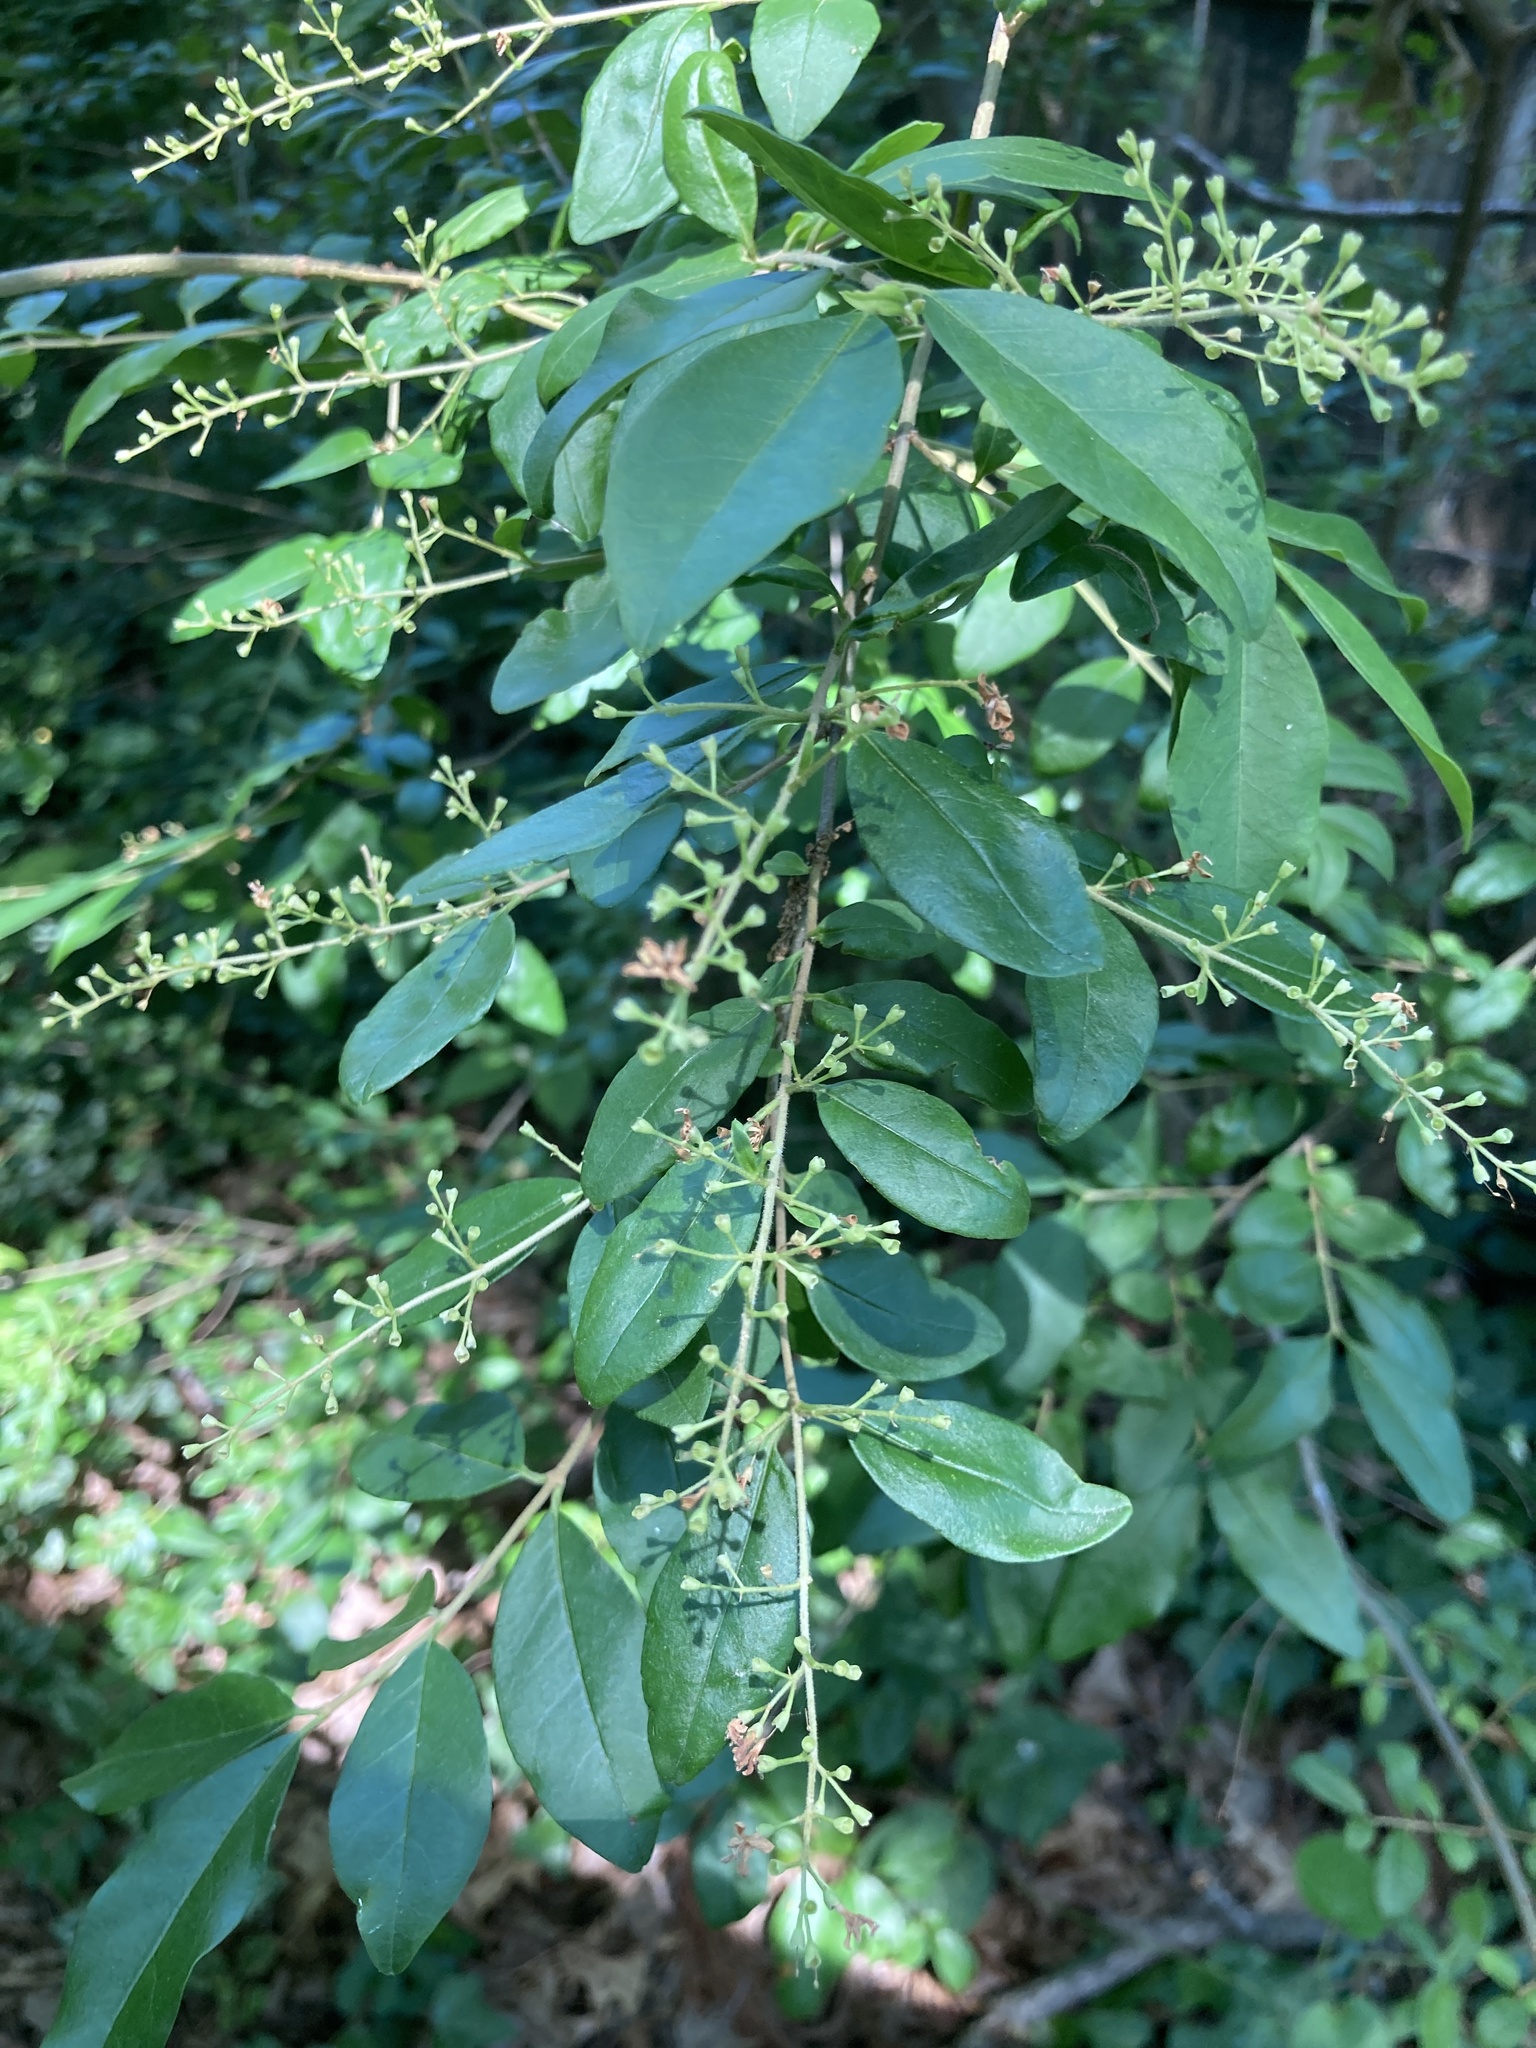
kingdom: Plantae
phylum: Tracheophyta
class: Magnoliopsida
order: Lamiales
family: Oleaceae
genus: Ligustrum
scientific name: Ligustrum sinense
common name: Chinese privet
